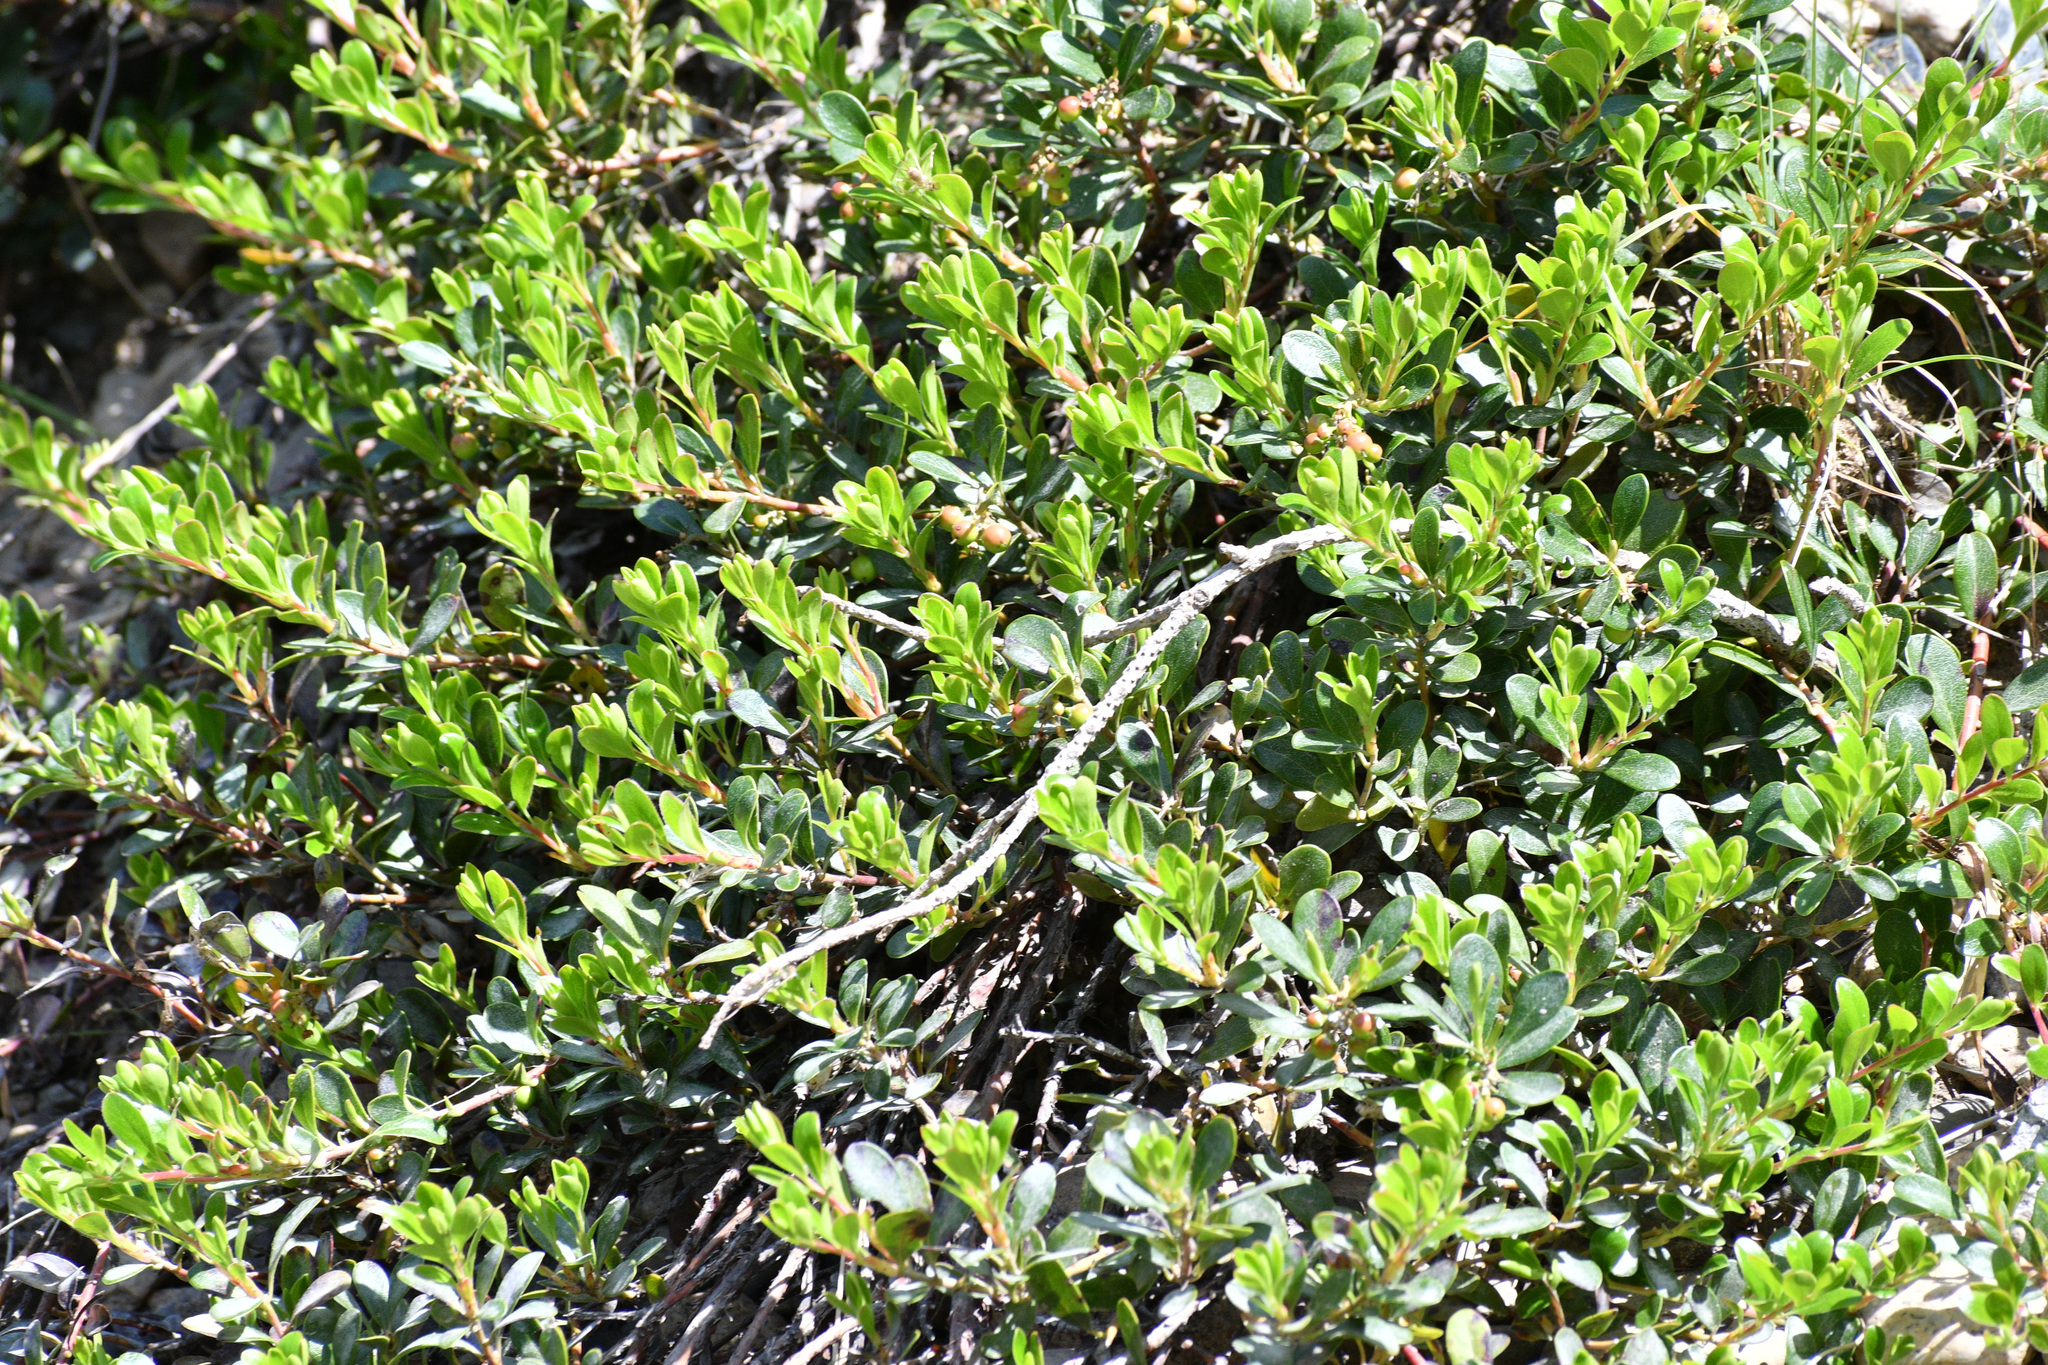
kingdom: Plantae
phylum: Tracheophyta
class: Magnoliopsida
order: Ericales
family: Ericaceae
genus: Arctostaphylos
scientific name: Arctostaphylos uva-ursi
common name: Bearberry
